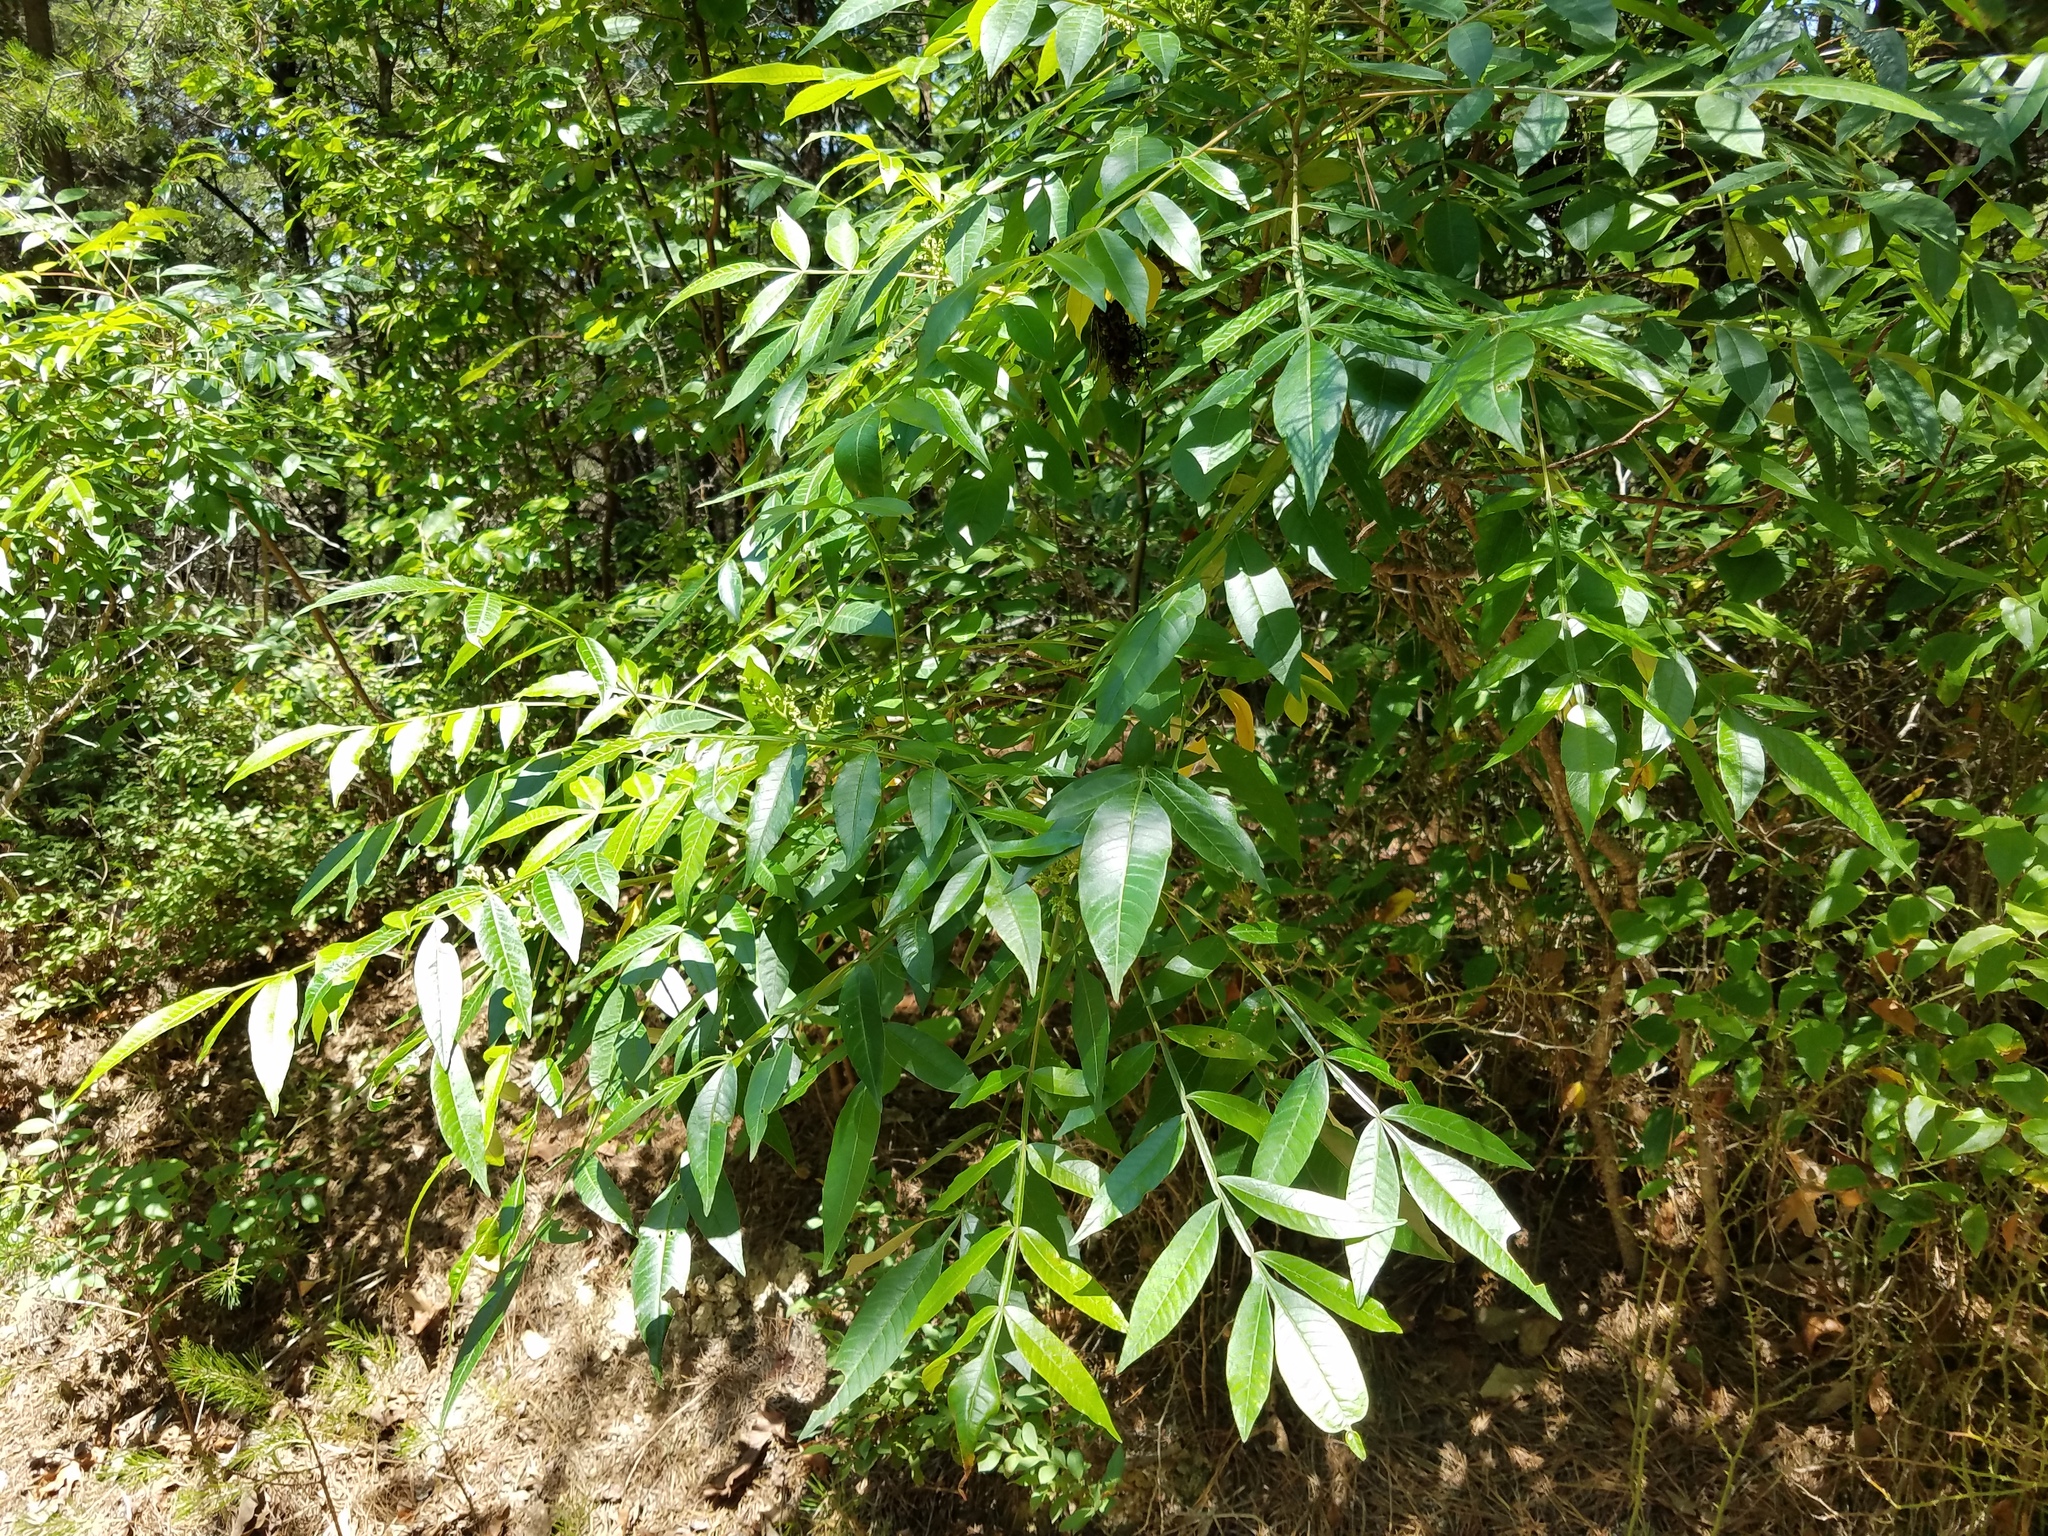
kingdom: Plantae
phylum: Tracheophyta
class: Magnoliopsida
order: Sapindales
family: Anacardiaceae
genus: Rhus
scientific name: Rhus copallina
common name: Shining sumac
